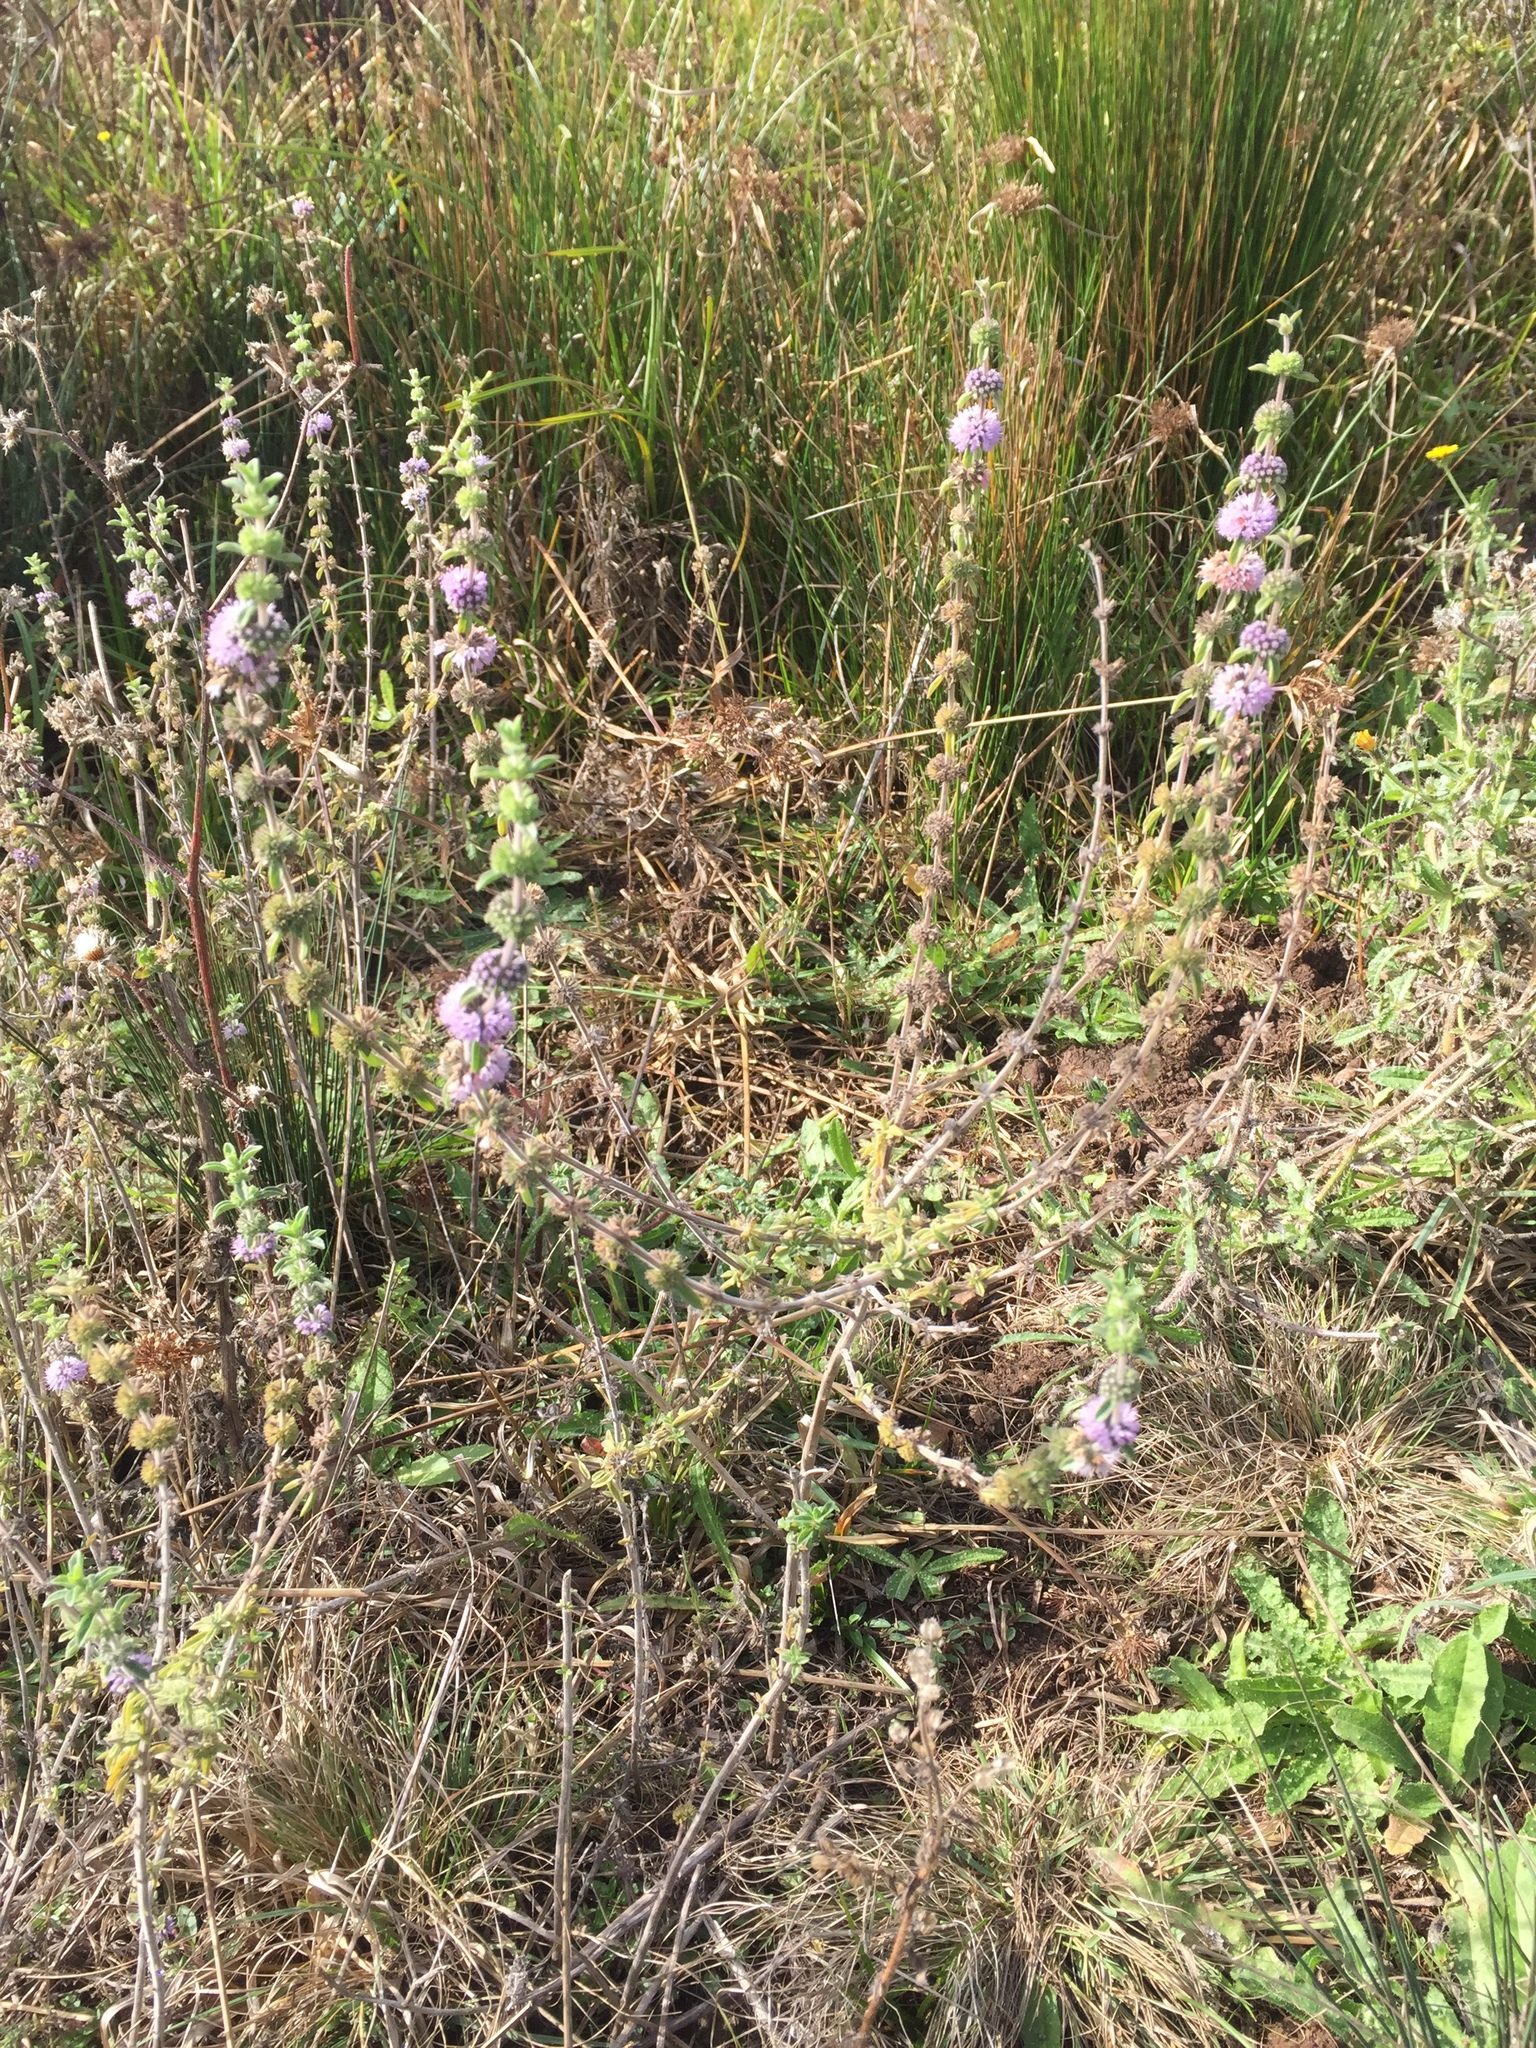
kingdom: Plantae
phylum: Tracheophyta
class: Magnoliopsida
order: Lamiales
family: Lamiaceae
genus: Mentha
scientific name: Mentha pulegium
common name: Pennyroyal
